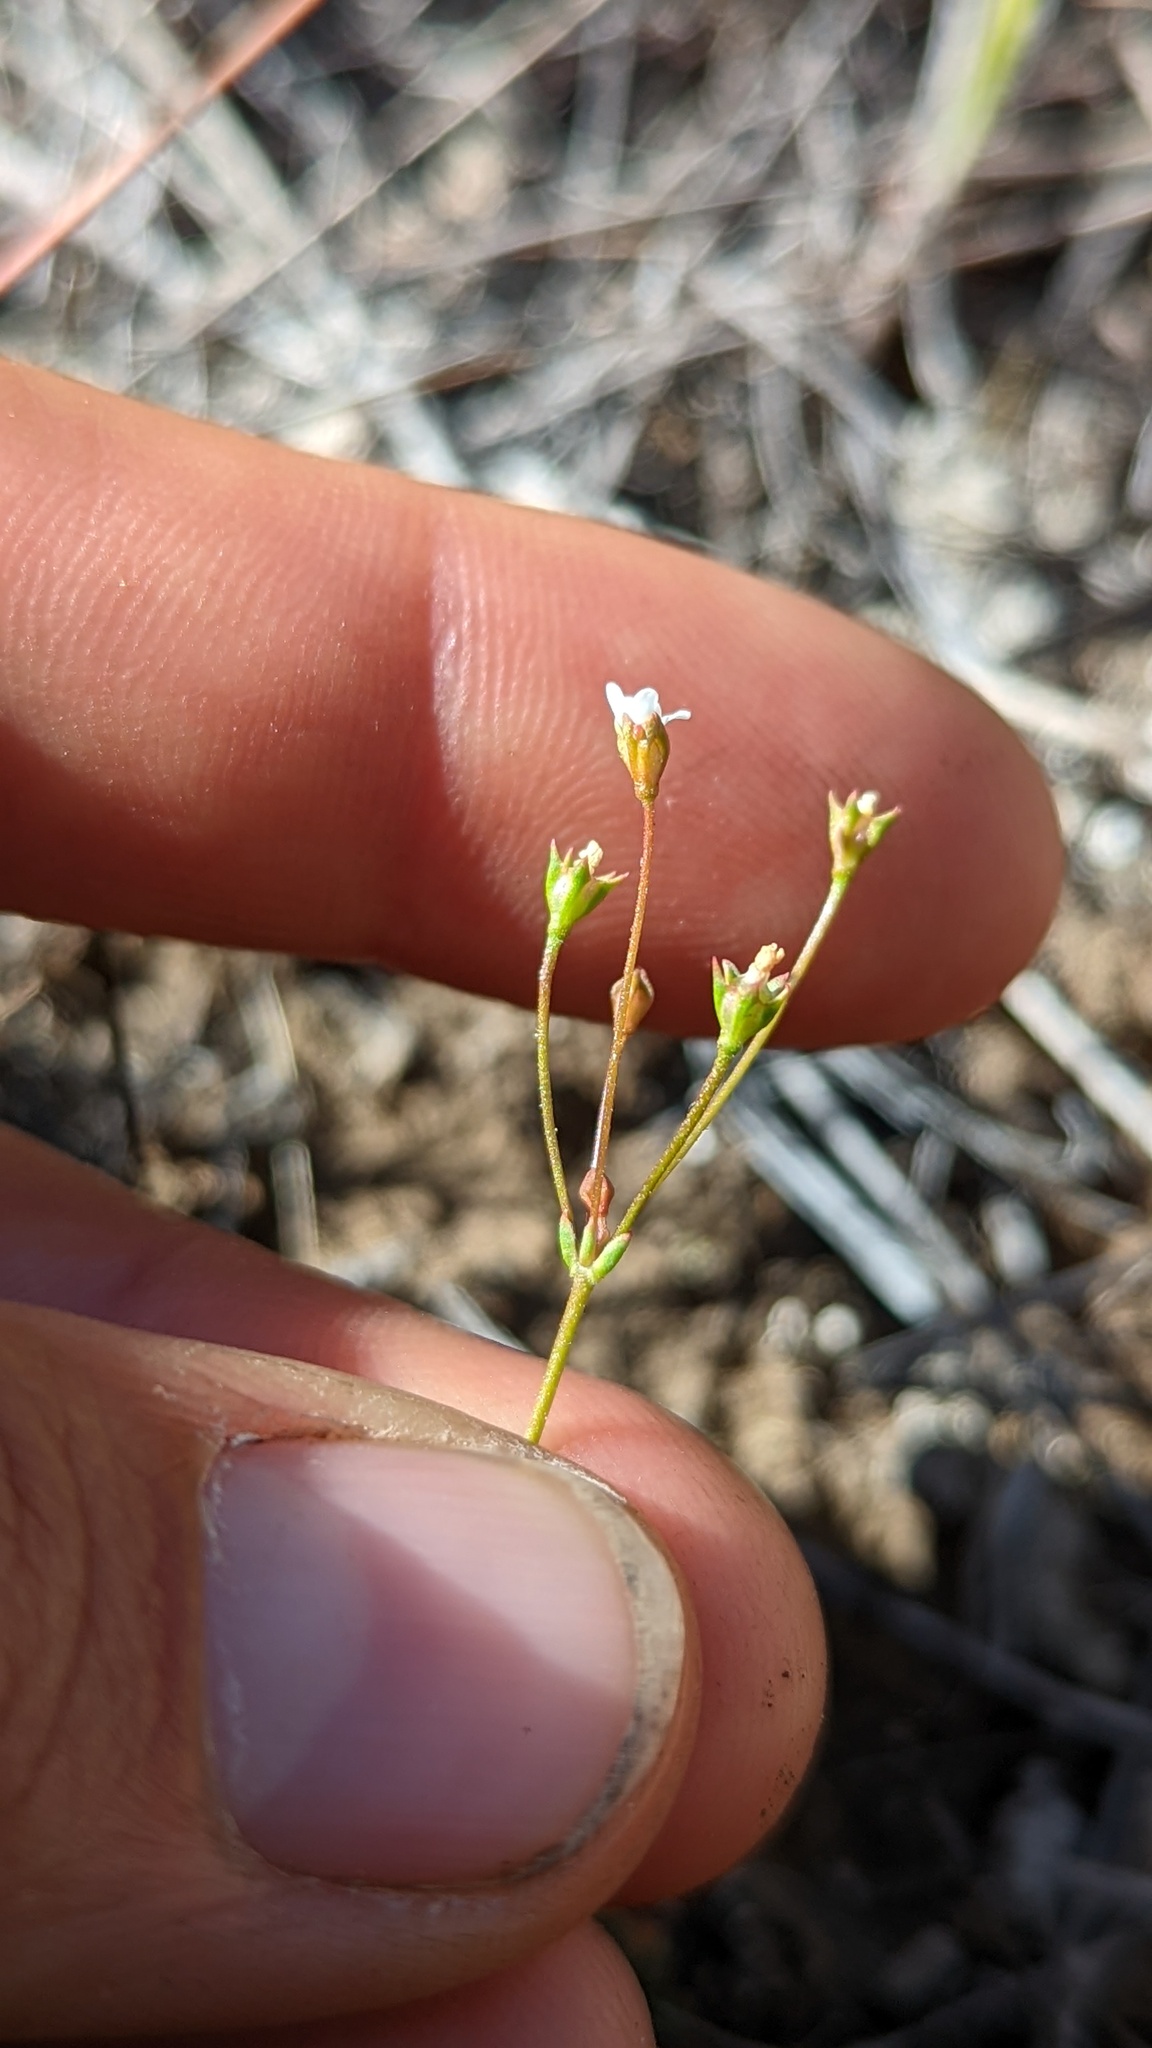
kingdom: Plantae
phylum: Tracheophyta
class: Magnoliopsida
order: Ericales
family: Primulaceae
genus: Androsace
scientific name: Androsace septentrionalis
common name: Hairy northern fairy-candelabra
